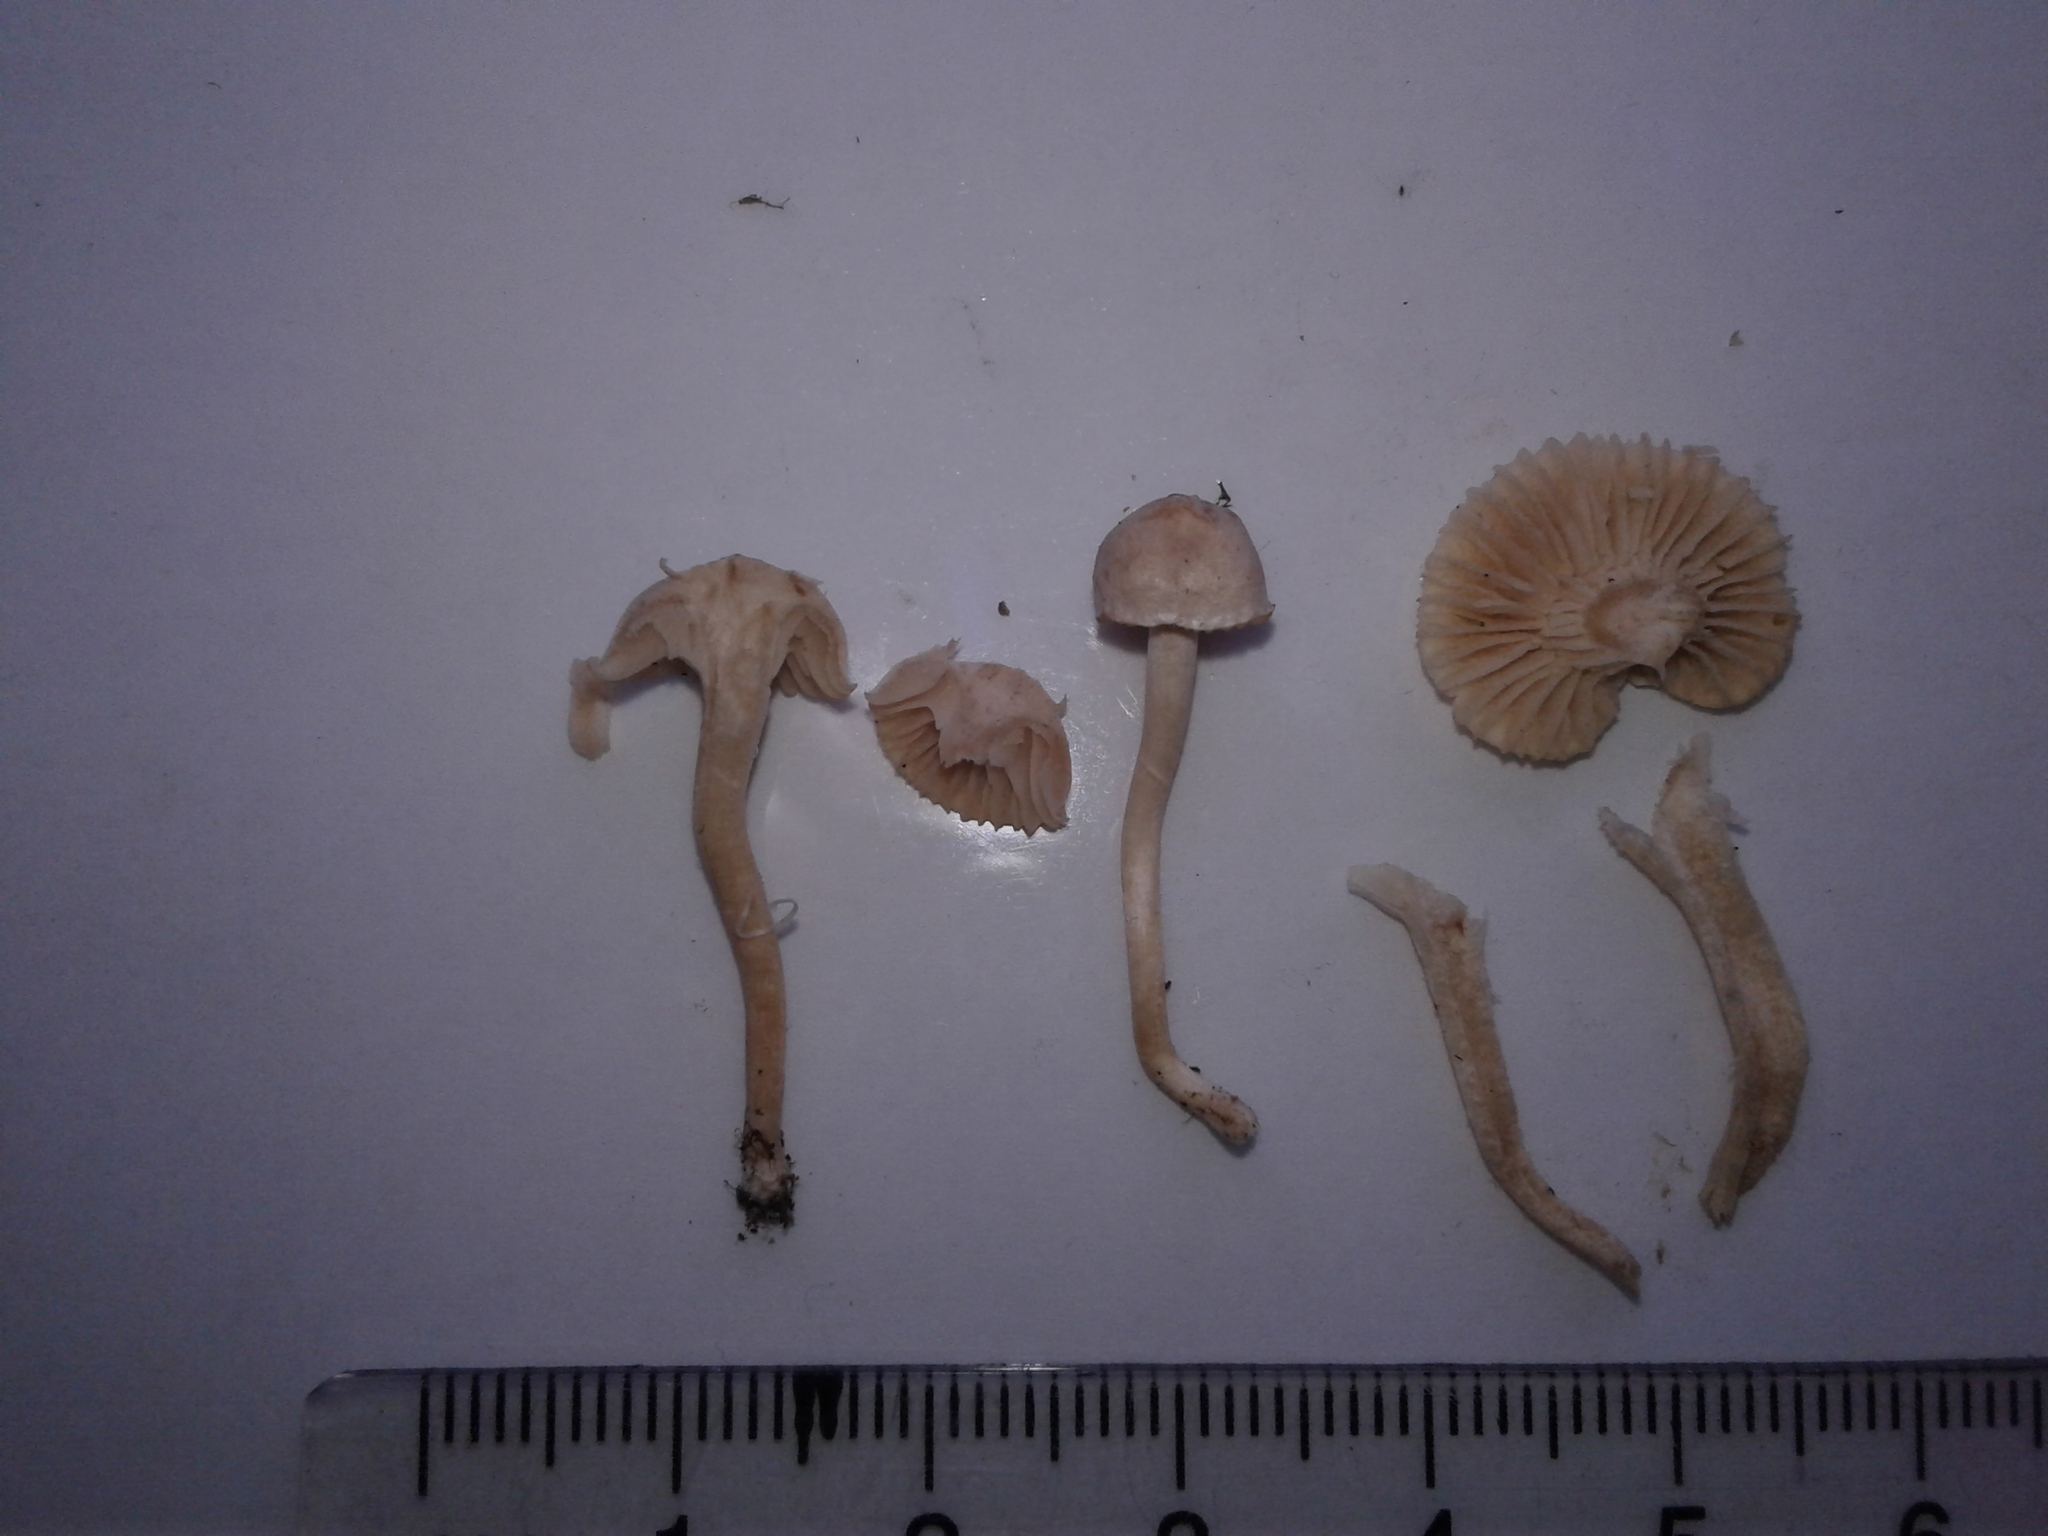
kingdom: Fungi
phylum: Basidiomycota
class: Agaricomycetes
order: Agaricales
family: Hygrophoraceae
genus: Cuphophyllus
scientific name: Cuphophyllus
